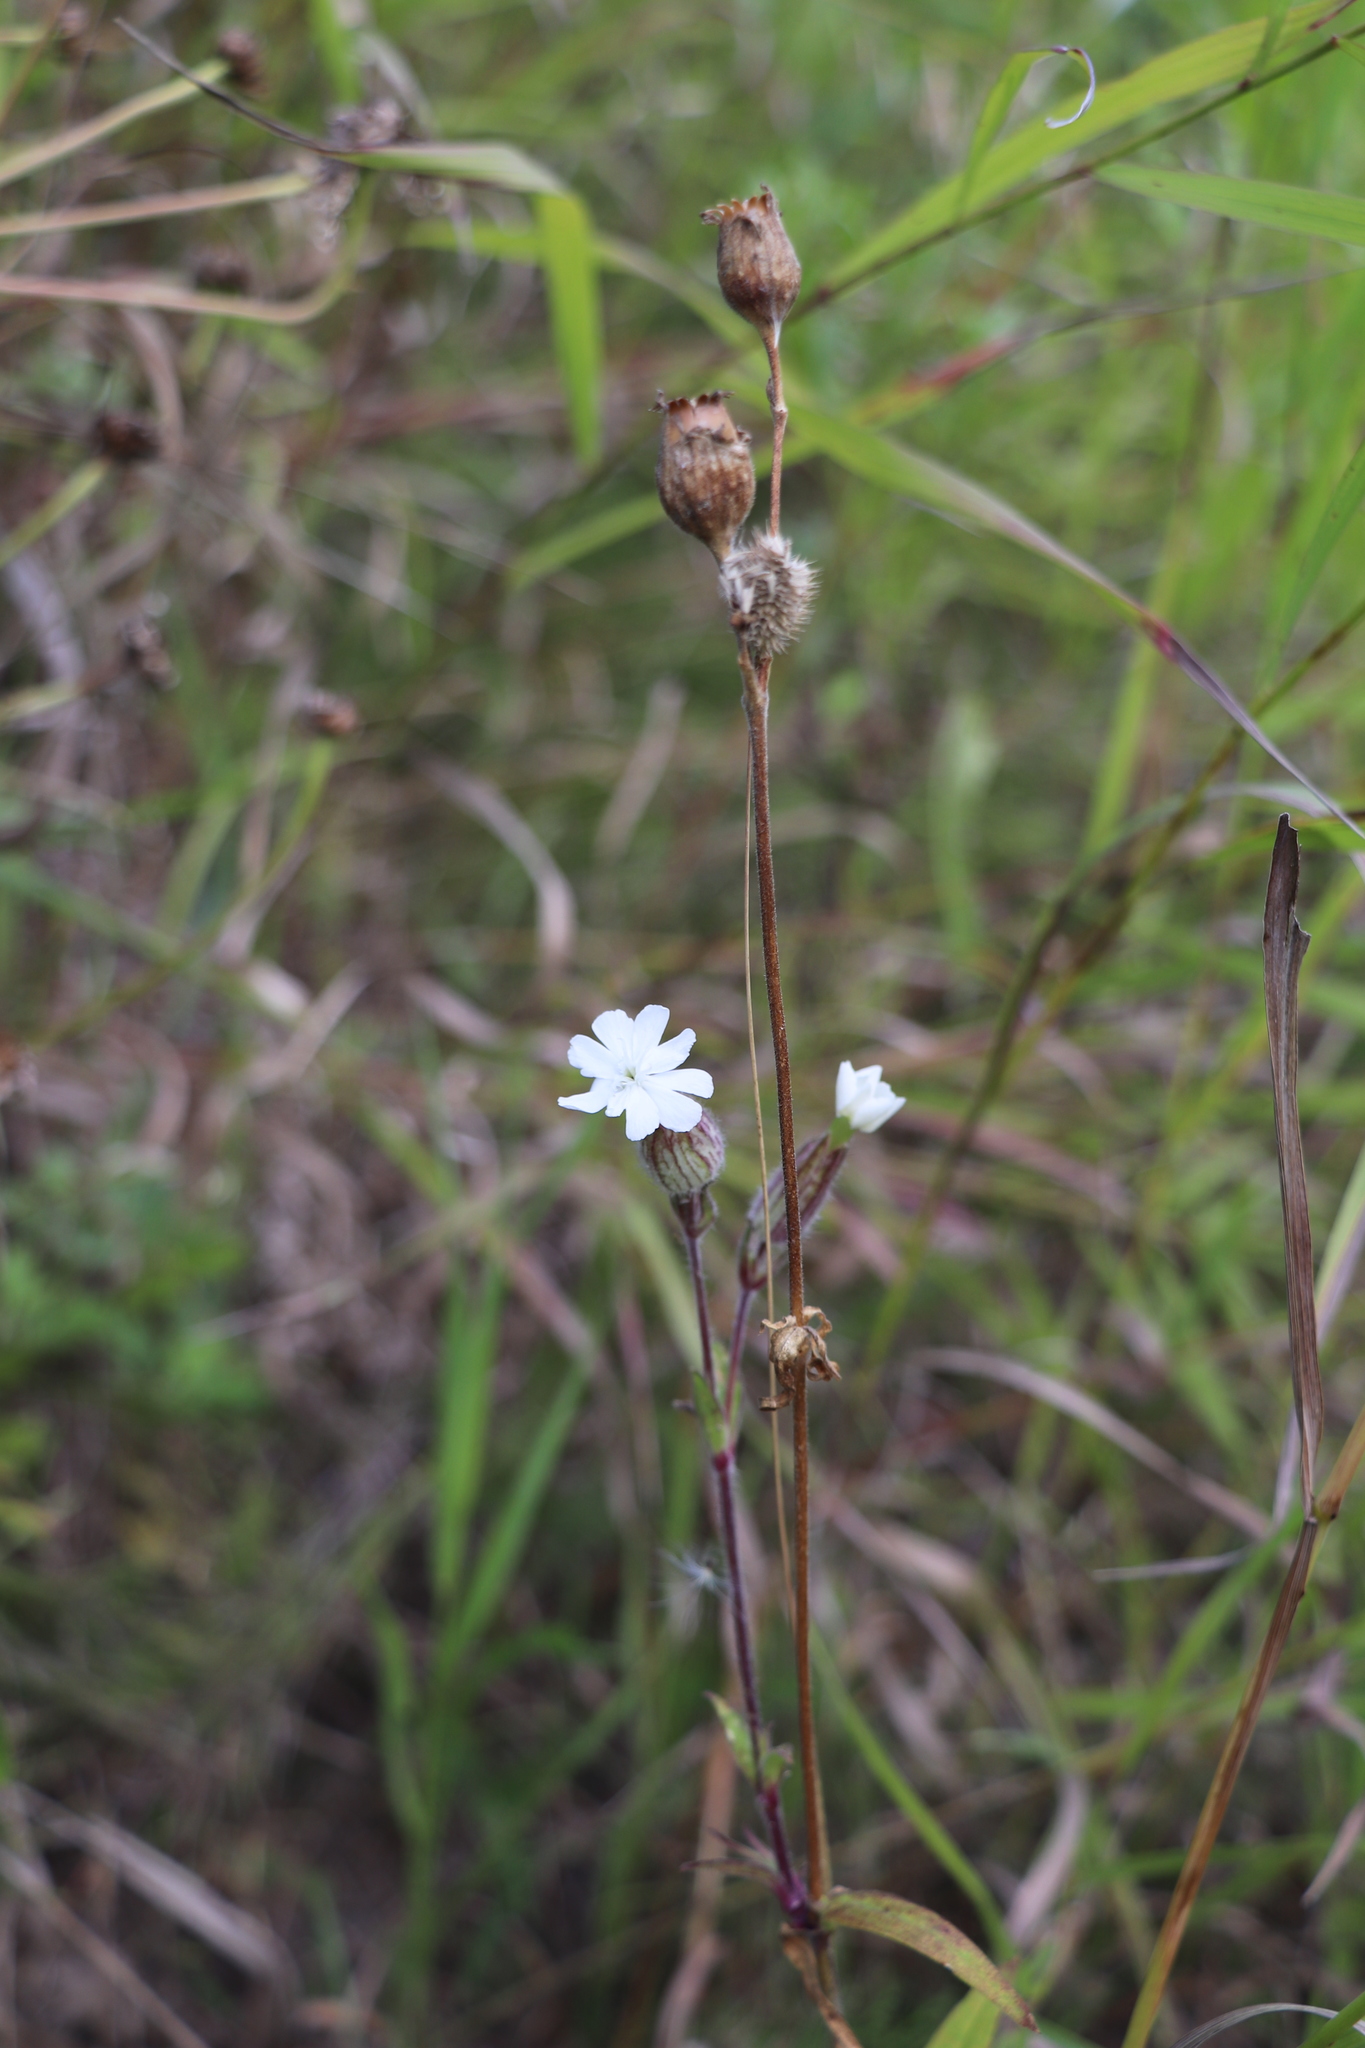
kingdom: Plantae
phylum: Tracheophyta
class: Magnoliopsida
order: Caryophyllales
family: Caryophyllaceae
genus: Silene
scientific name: Silene latifolia
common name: White campion
